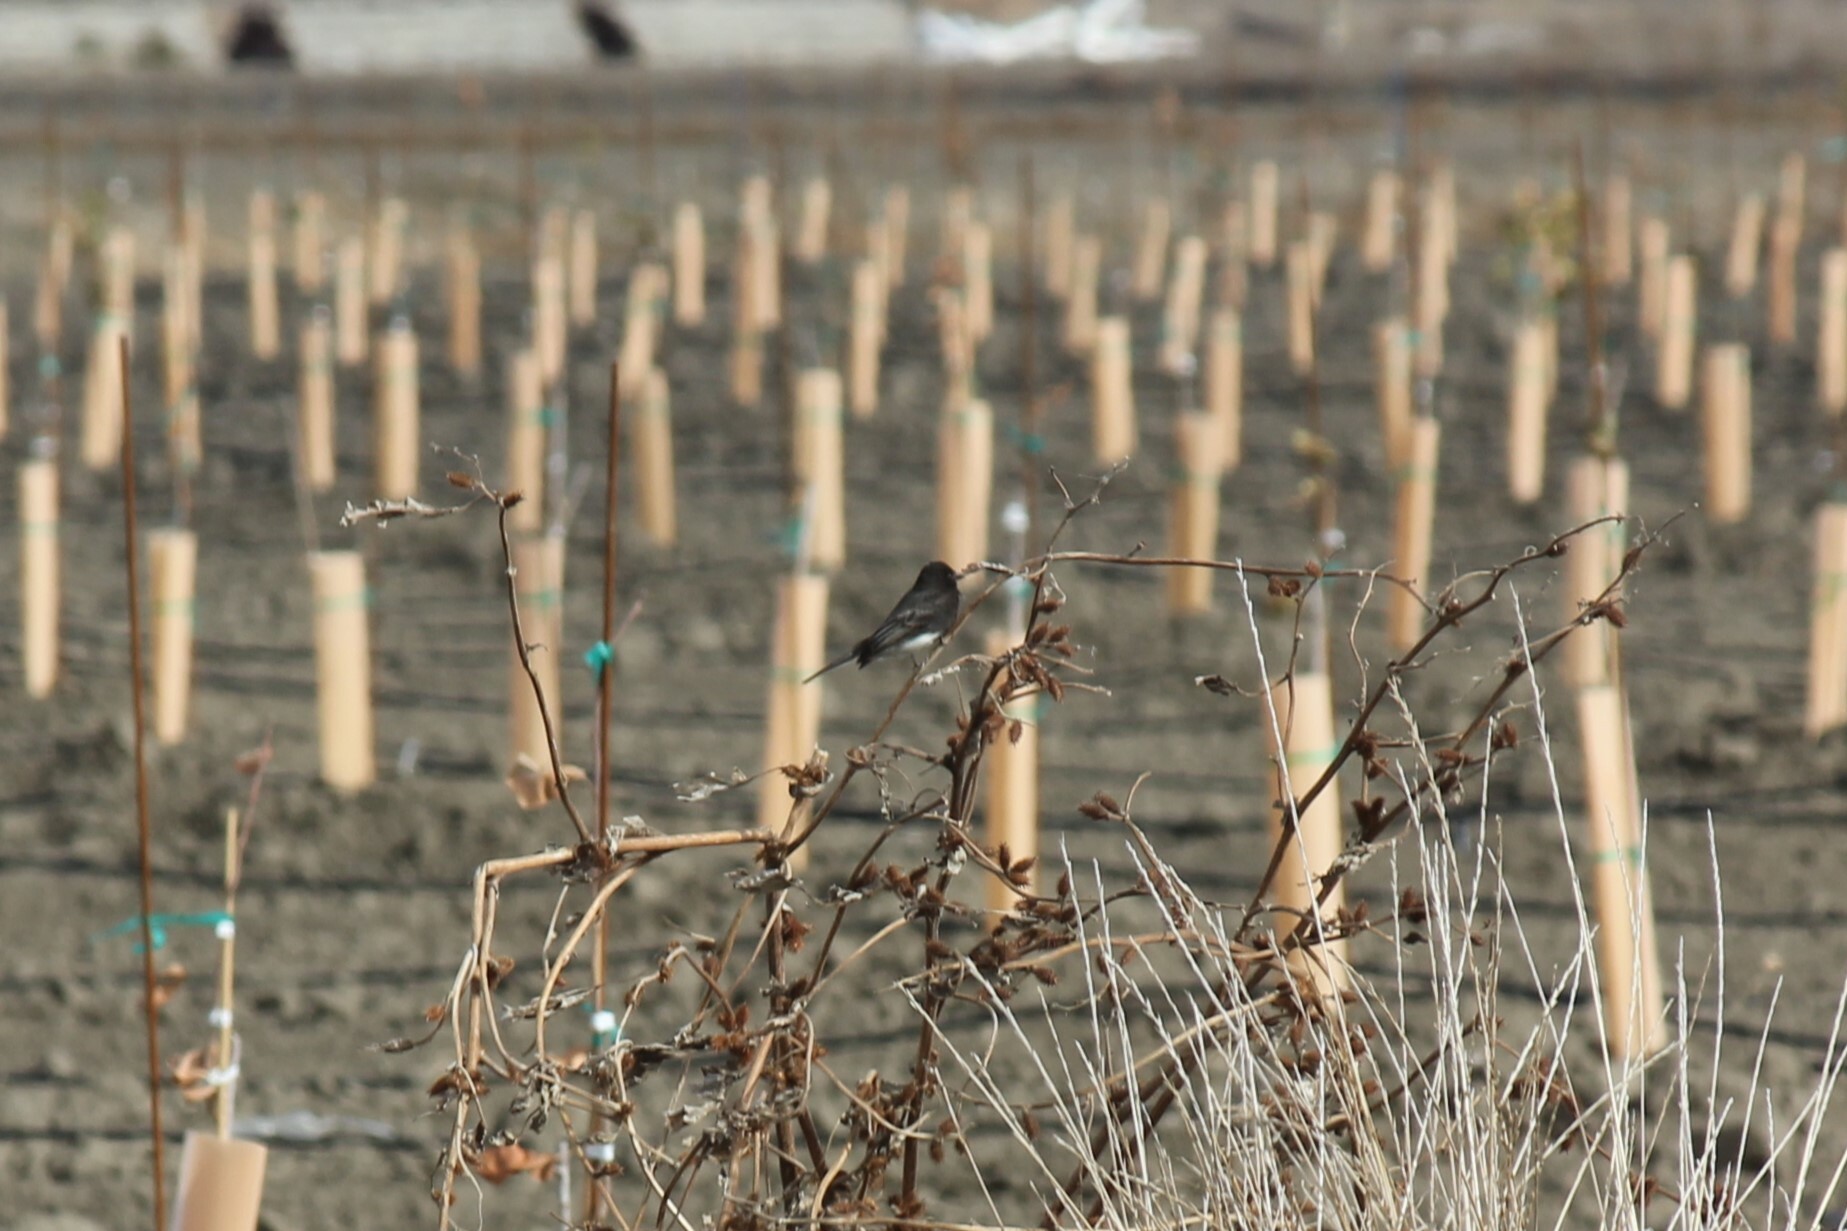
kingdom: Animalia
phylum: Chordata
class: Aves
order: Passeriformes
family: Tyrannidae
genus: Sayornis
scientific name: Sayornis nigricans
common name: Black phoebe
